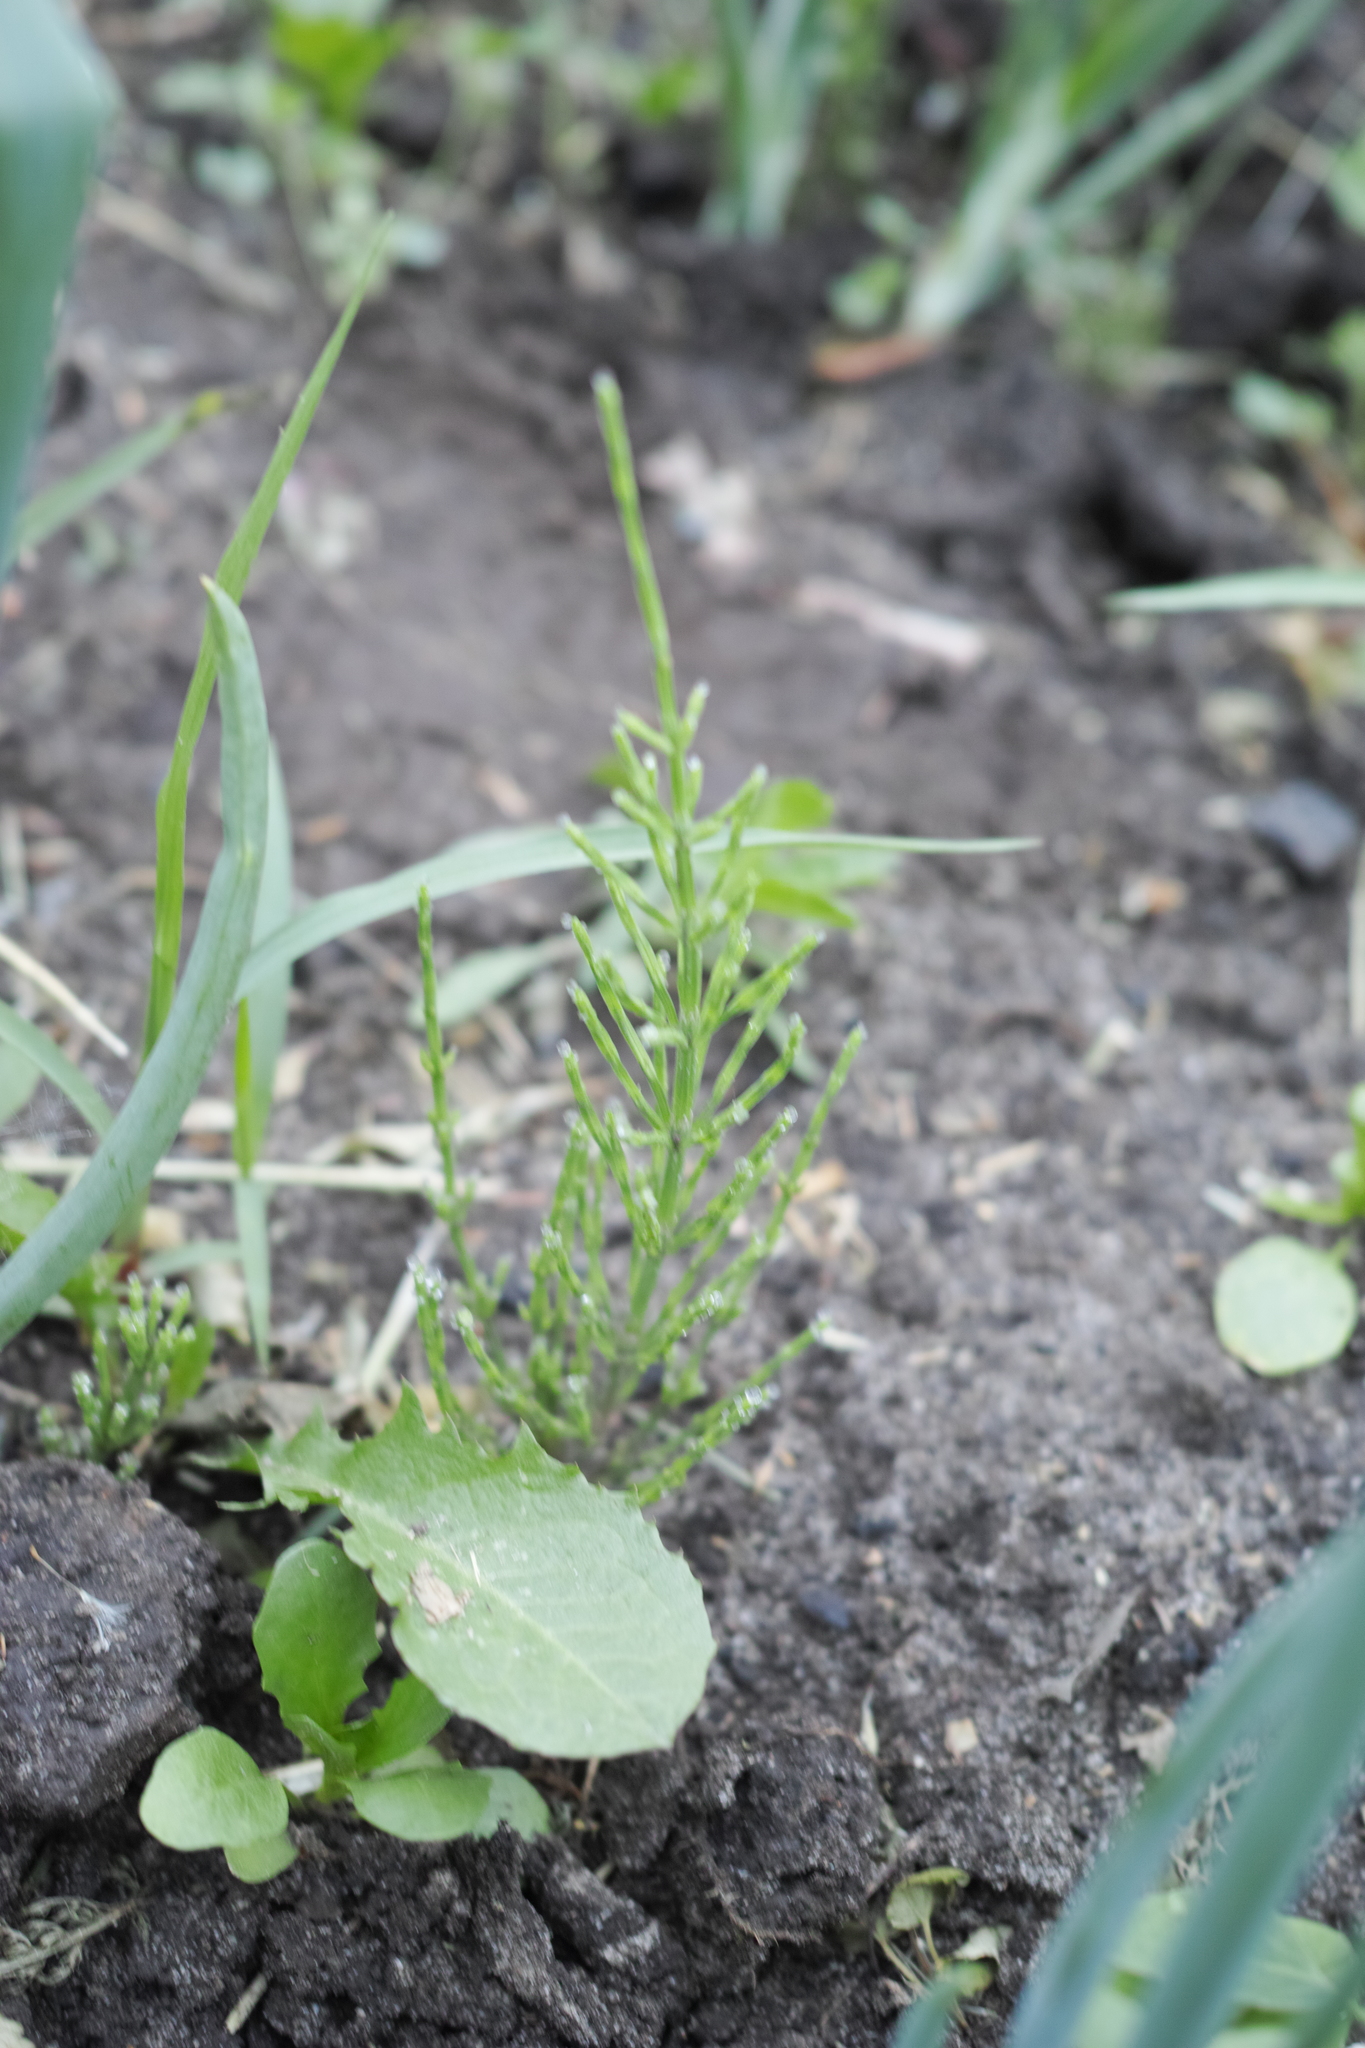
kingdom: Plantae
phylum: Tracheophyta
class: Polypodiopsida
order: Equisetales
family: Equisetaceae
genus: Equisetum
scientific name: Equisetum arvense
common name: Field horsetail
